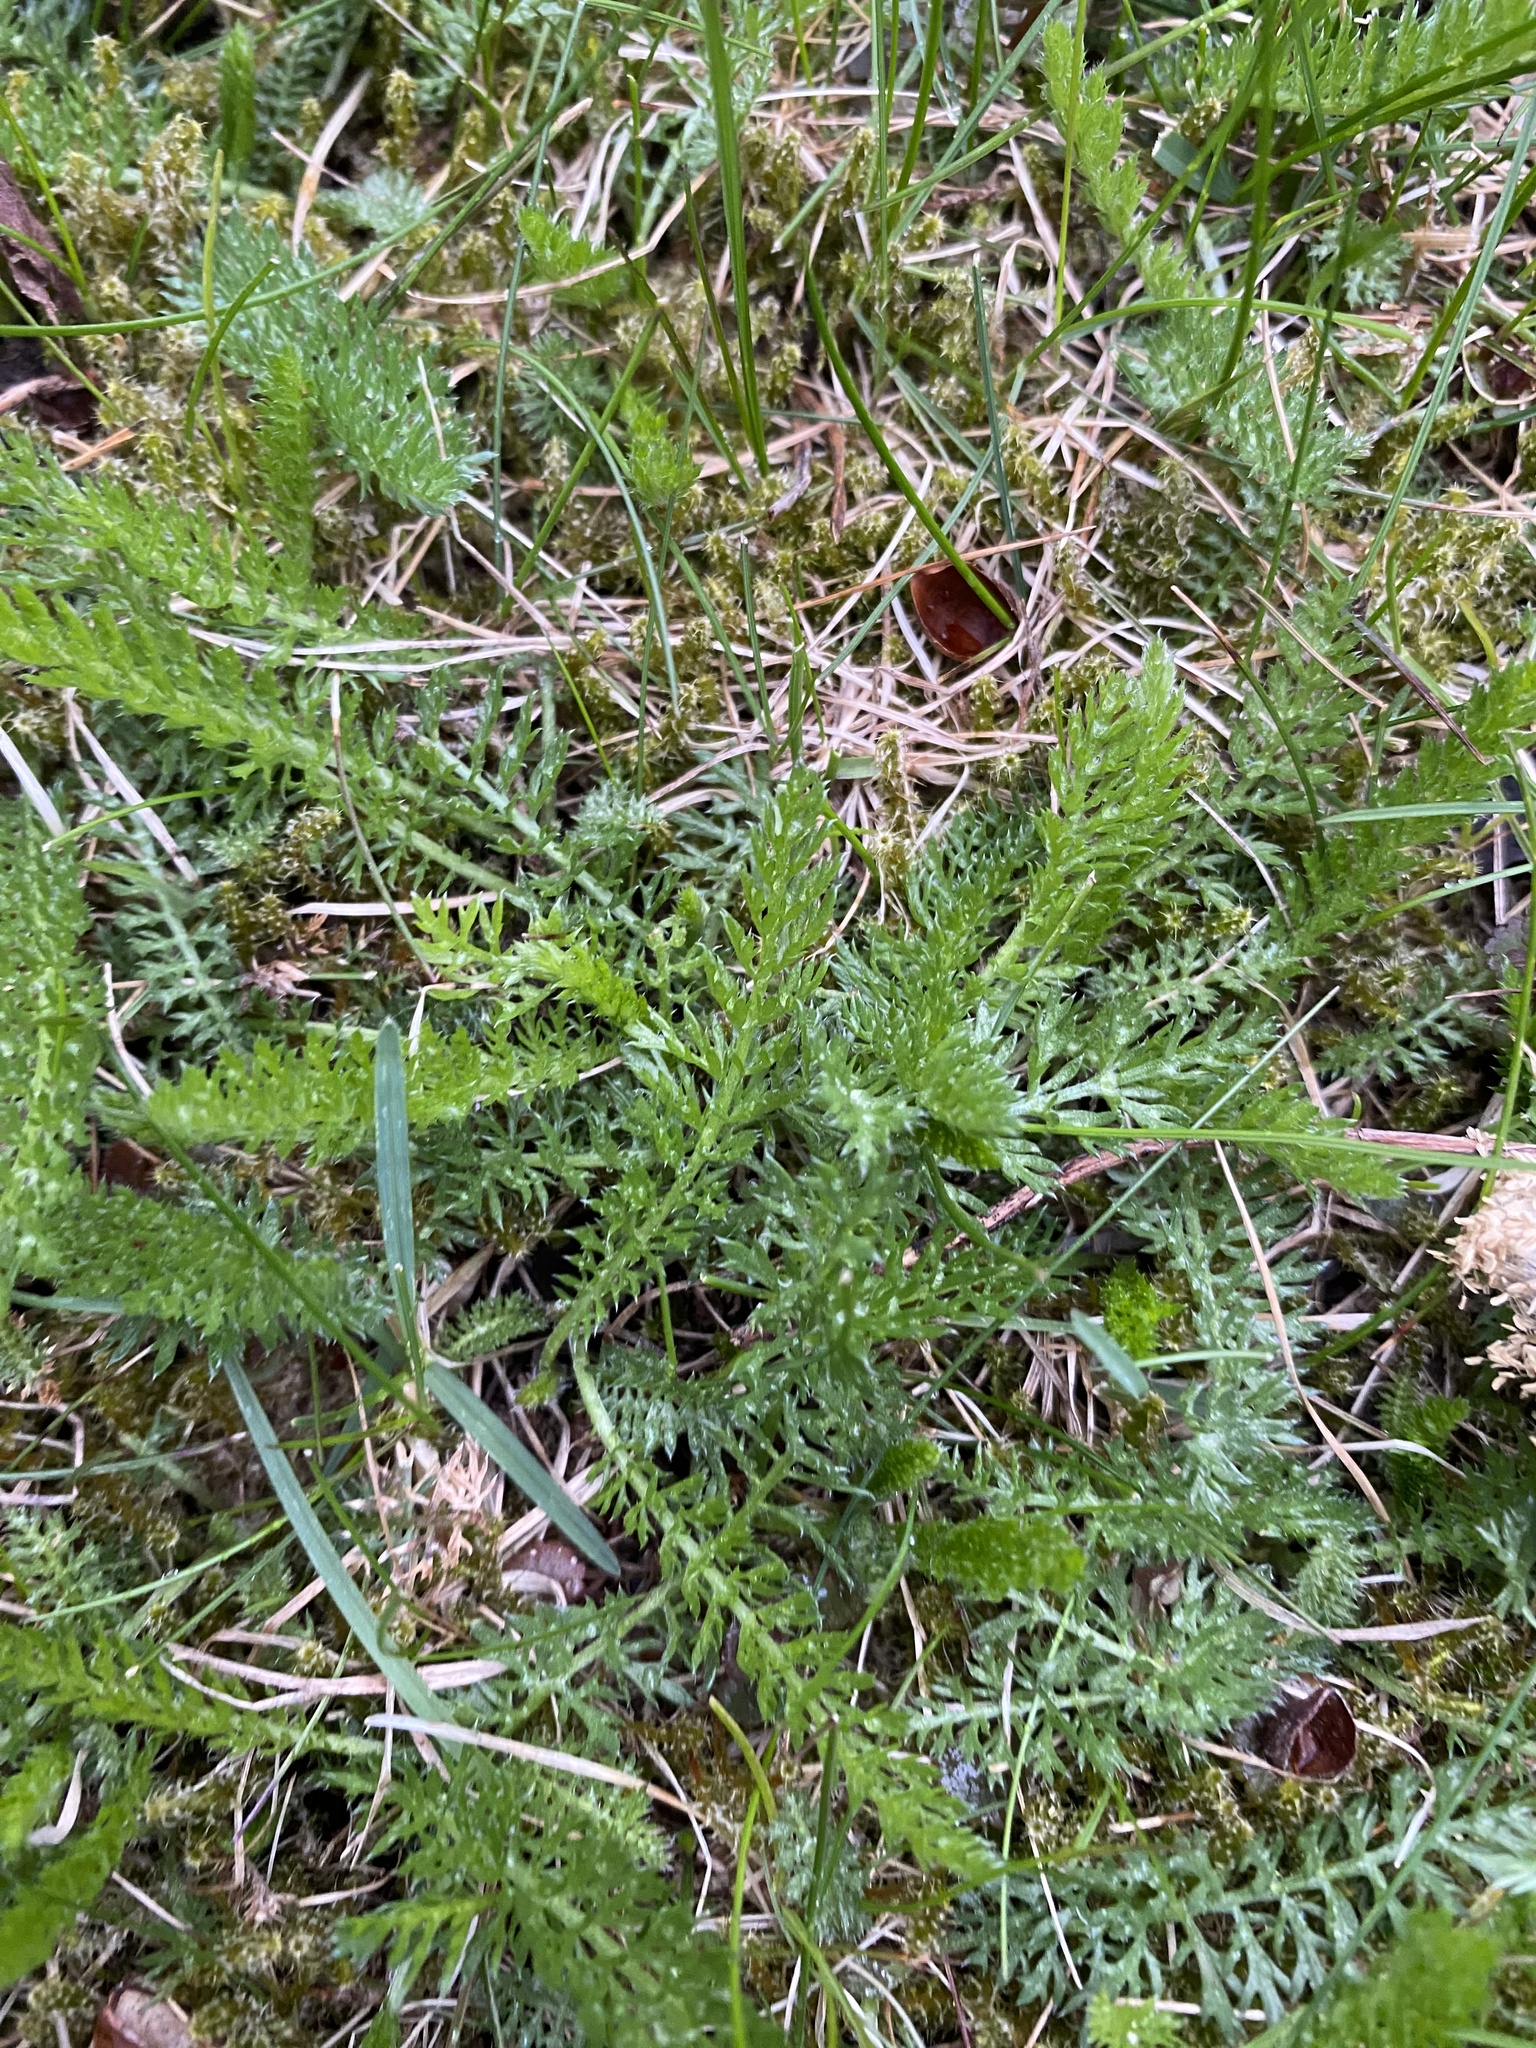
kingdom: Plantae
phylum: Tracheophyta
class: Magnoliopsida
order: Asterales
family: Asteraceae
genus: Achillea
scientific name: Achillea millefolium
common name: Yarrow
